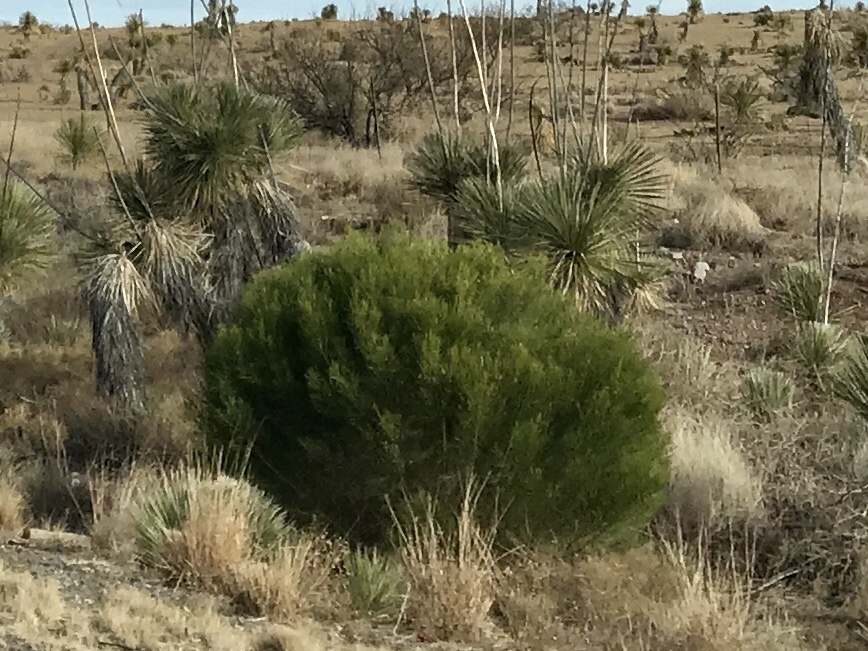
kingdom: Plantae
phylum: Tracheophyta
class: Magnoliopsida
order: Asterales
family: Asteraceae
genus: Baccharis
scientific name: Baccharis sarothroides
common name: Desert-broom
